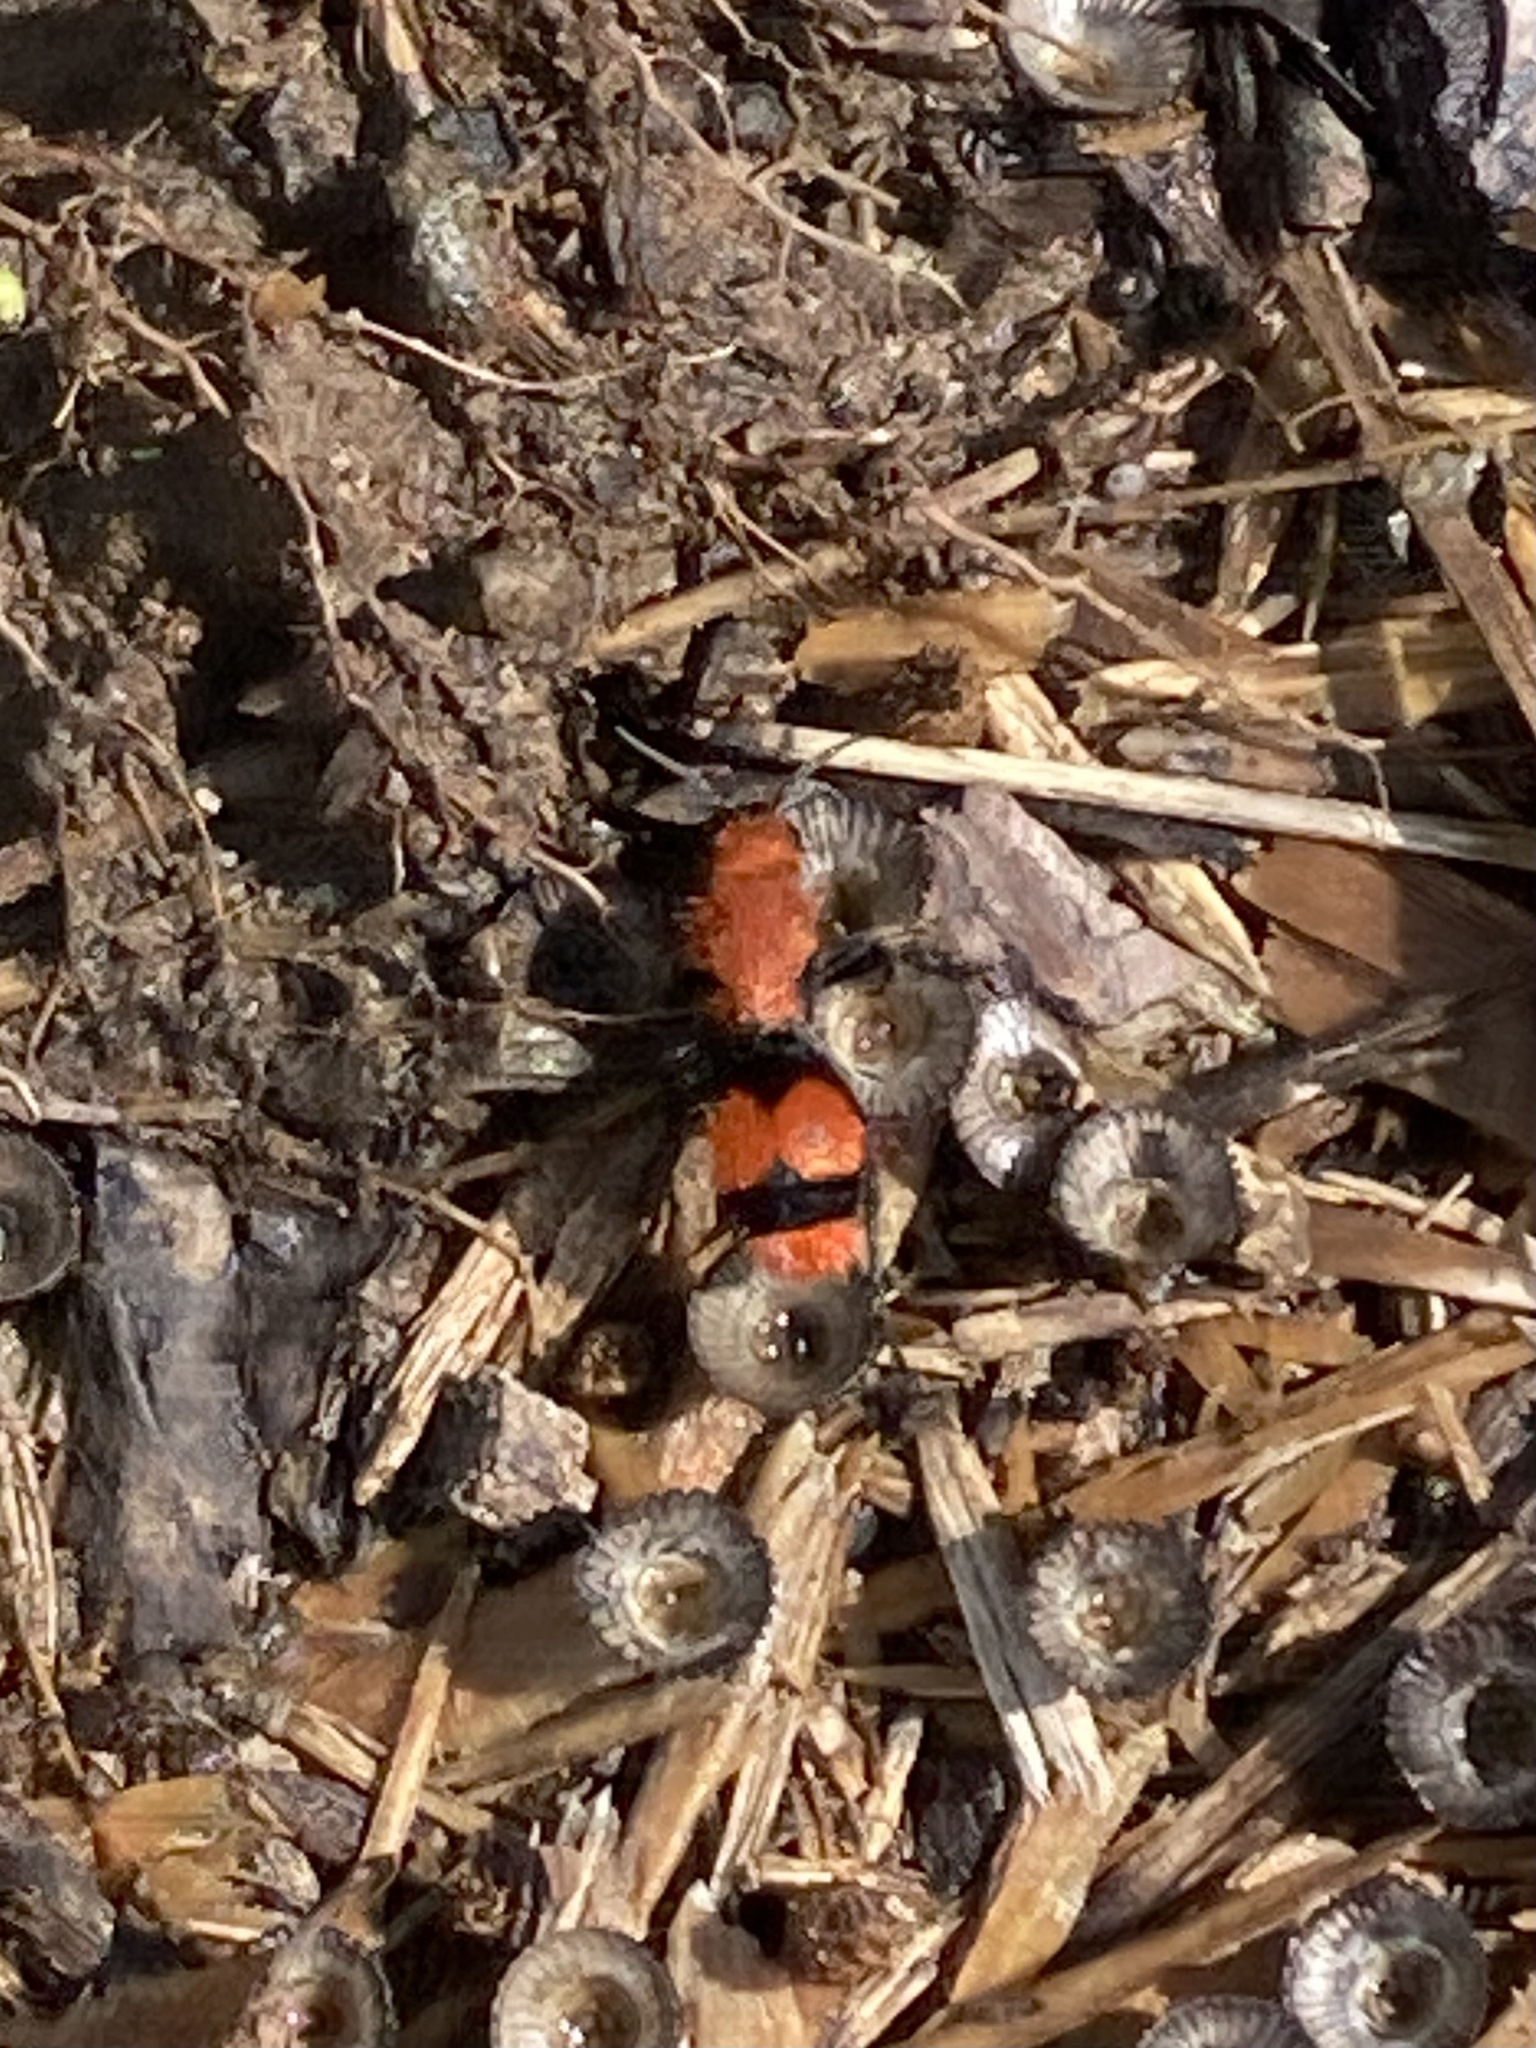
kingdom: Animalia
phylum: Arthropoda
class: Insecta
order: Hymenoptera
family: Mutillidae
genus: Dasymutilla
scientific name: Dasymutilla occidentalis
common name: Common eastern velvet ant
